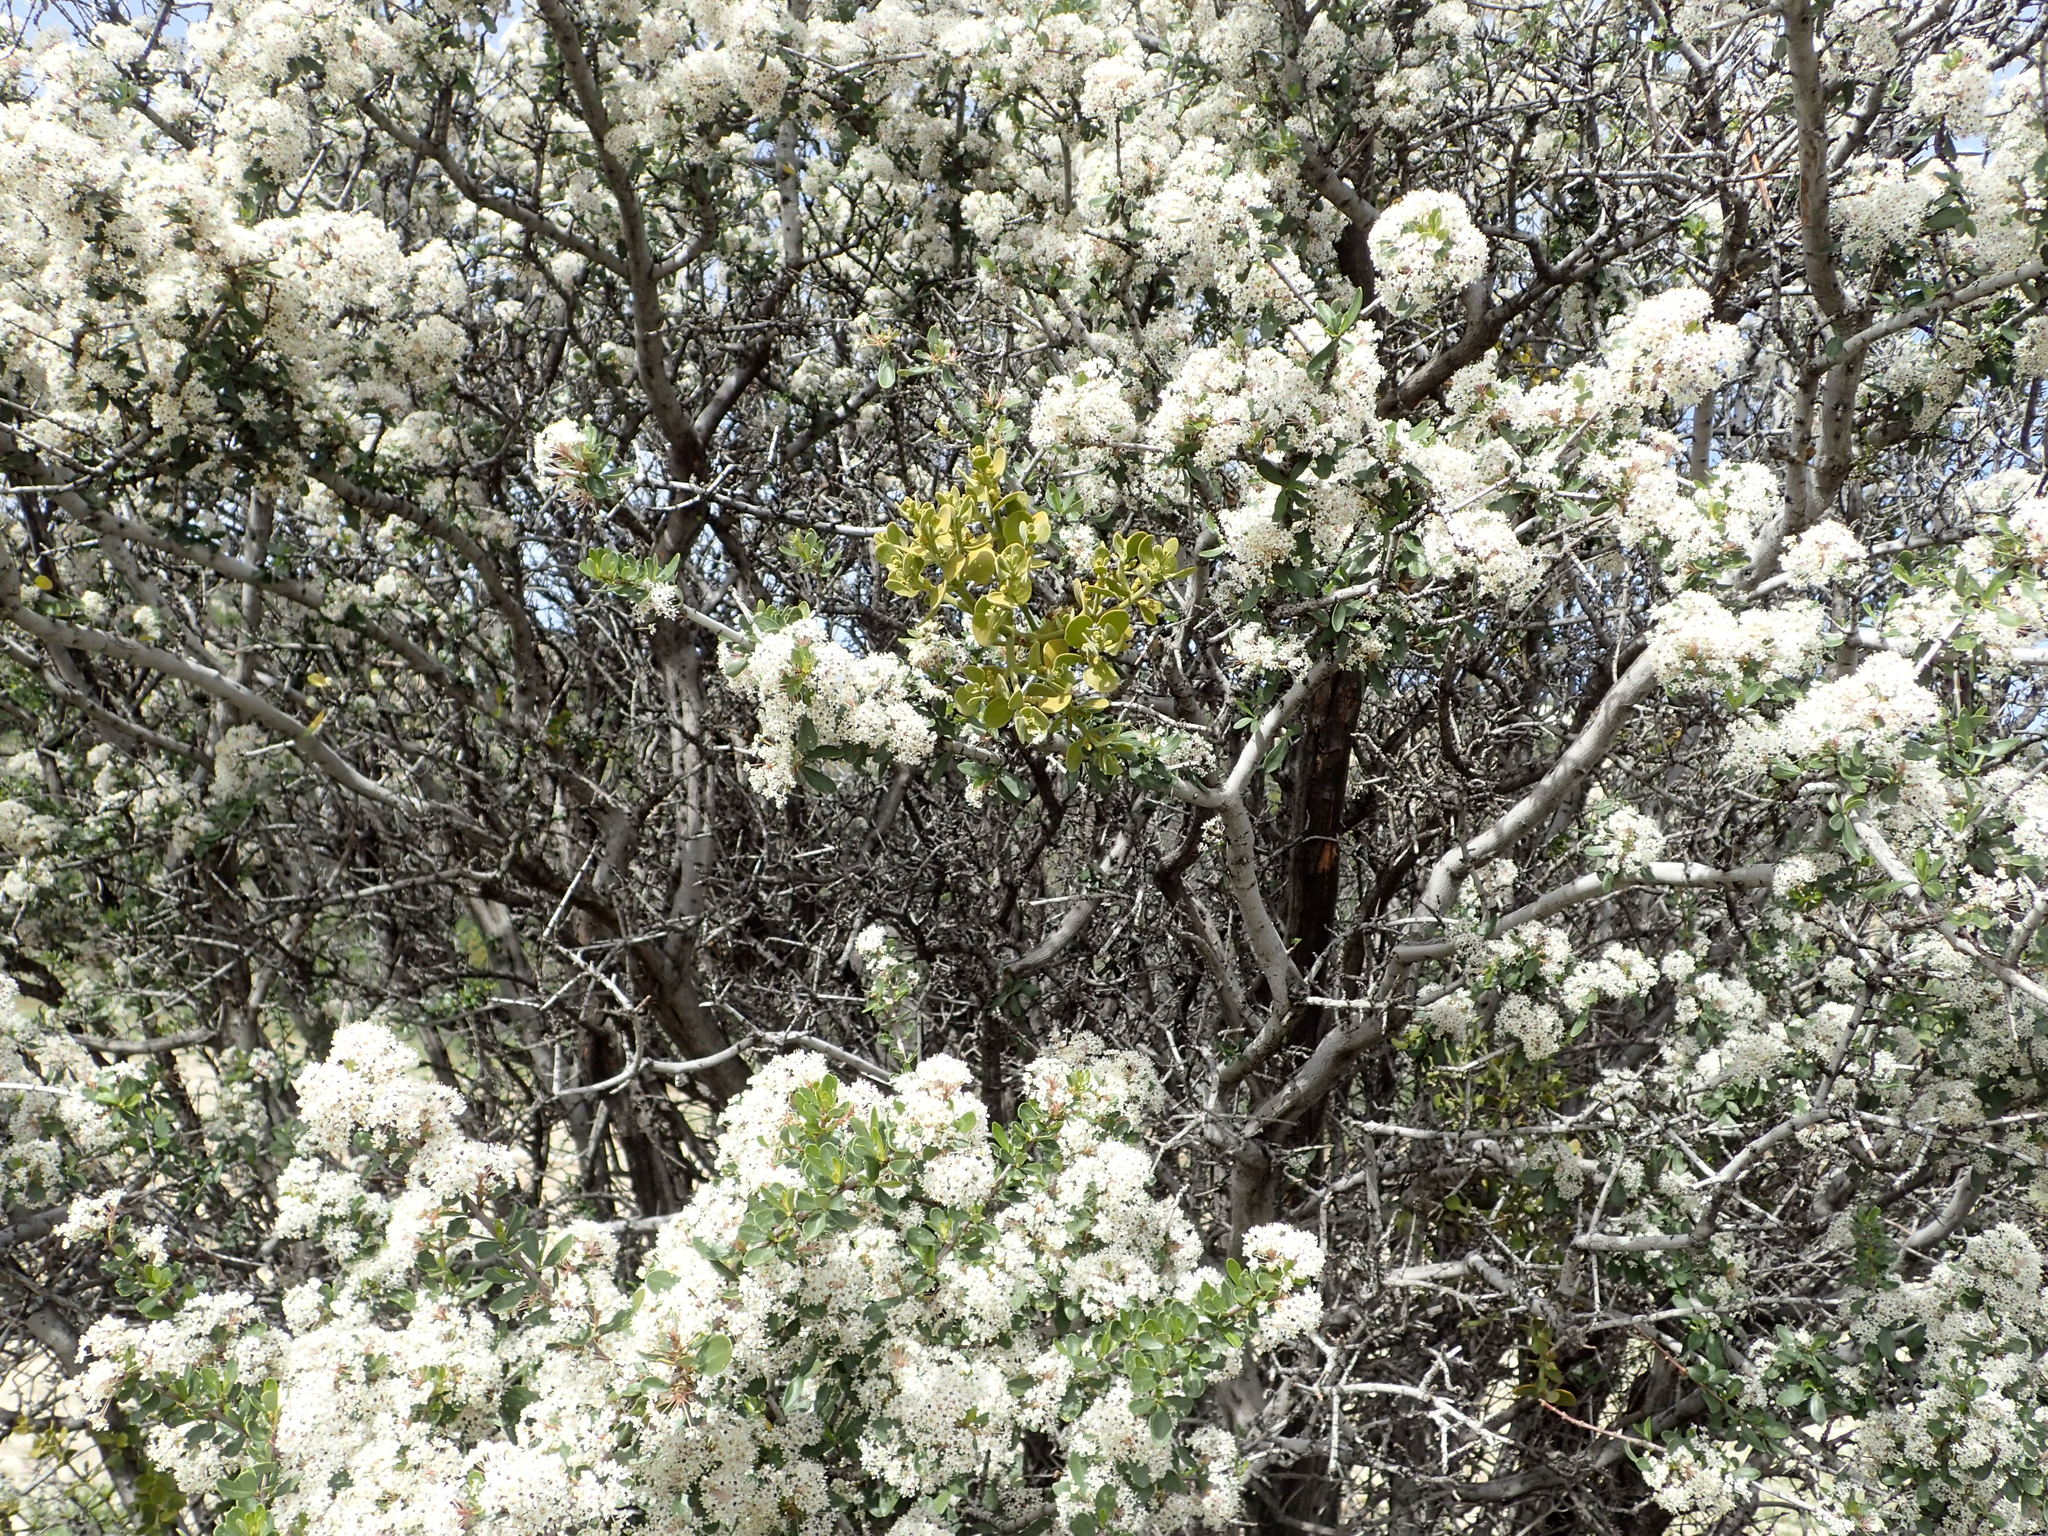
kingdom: Plantae
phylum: Tracheophyta
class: Magnoliopsida
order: Santalales
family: Viscaceae
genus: Phoradendron
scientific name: Phoradendron leucarpum
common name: Pacific mistletoe
